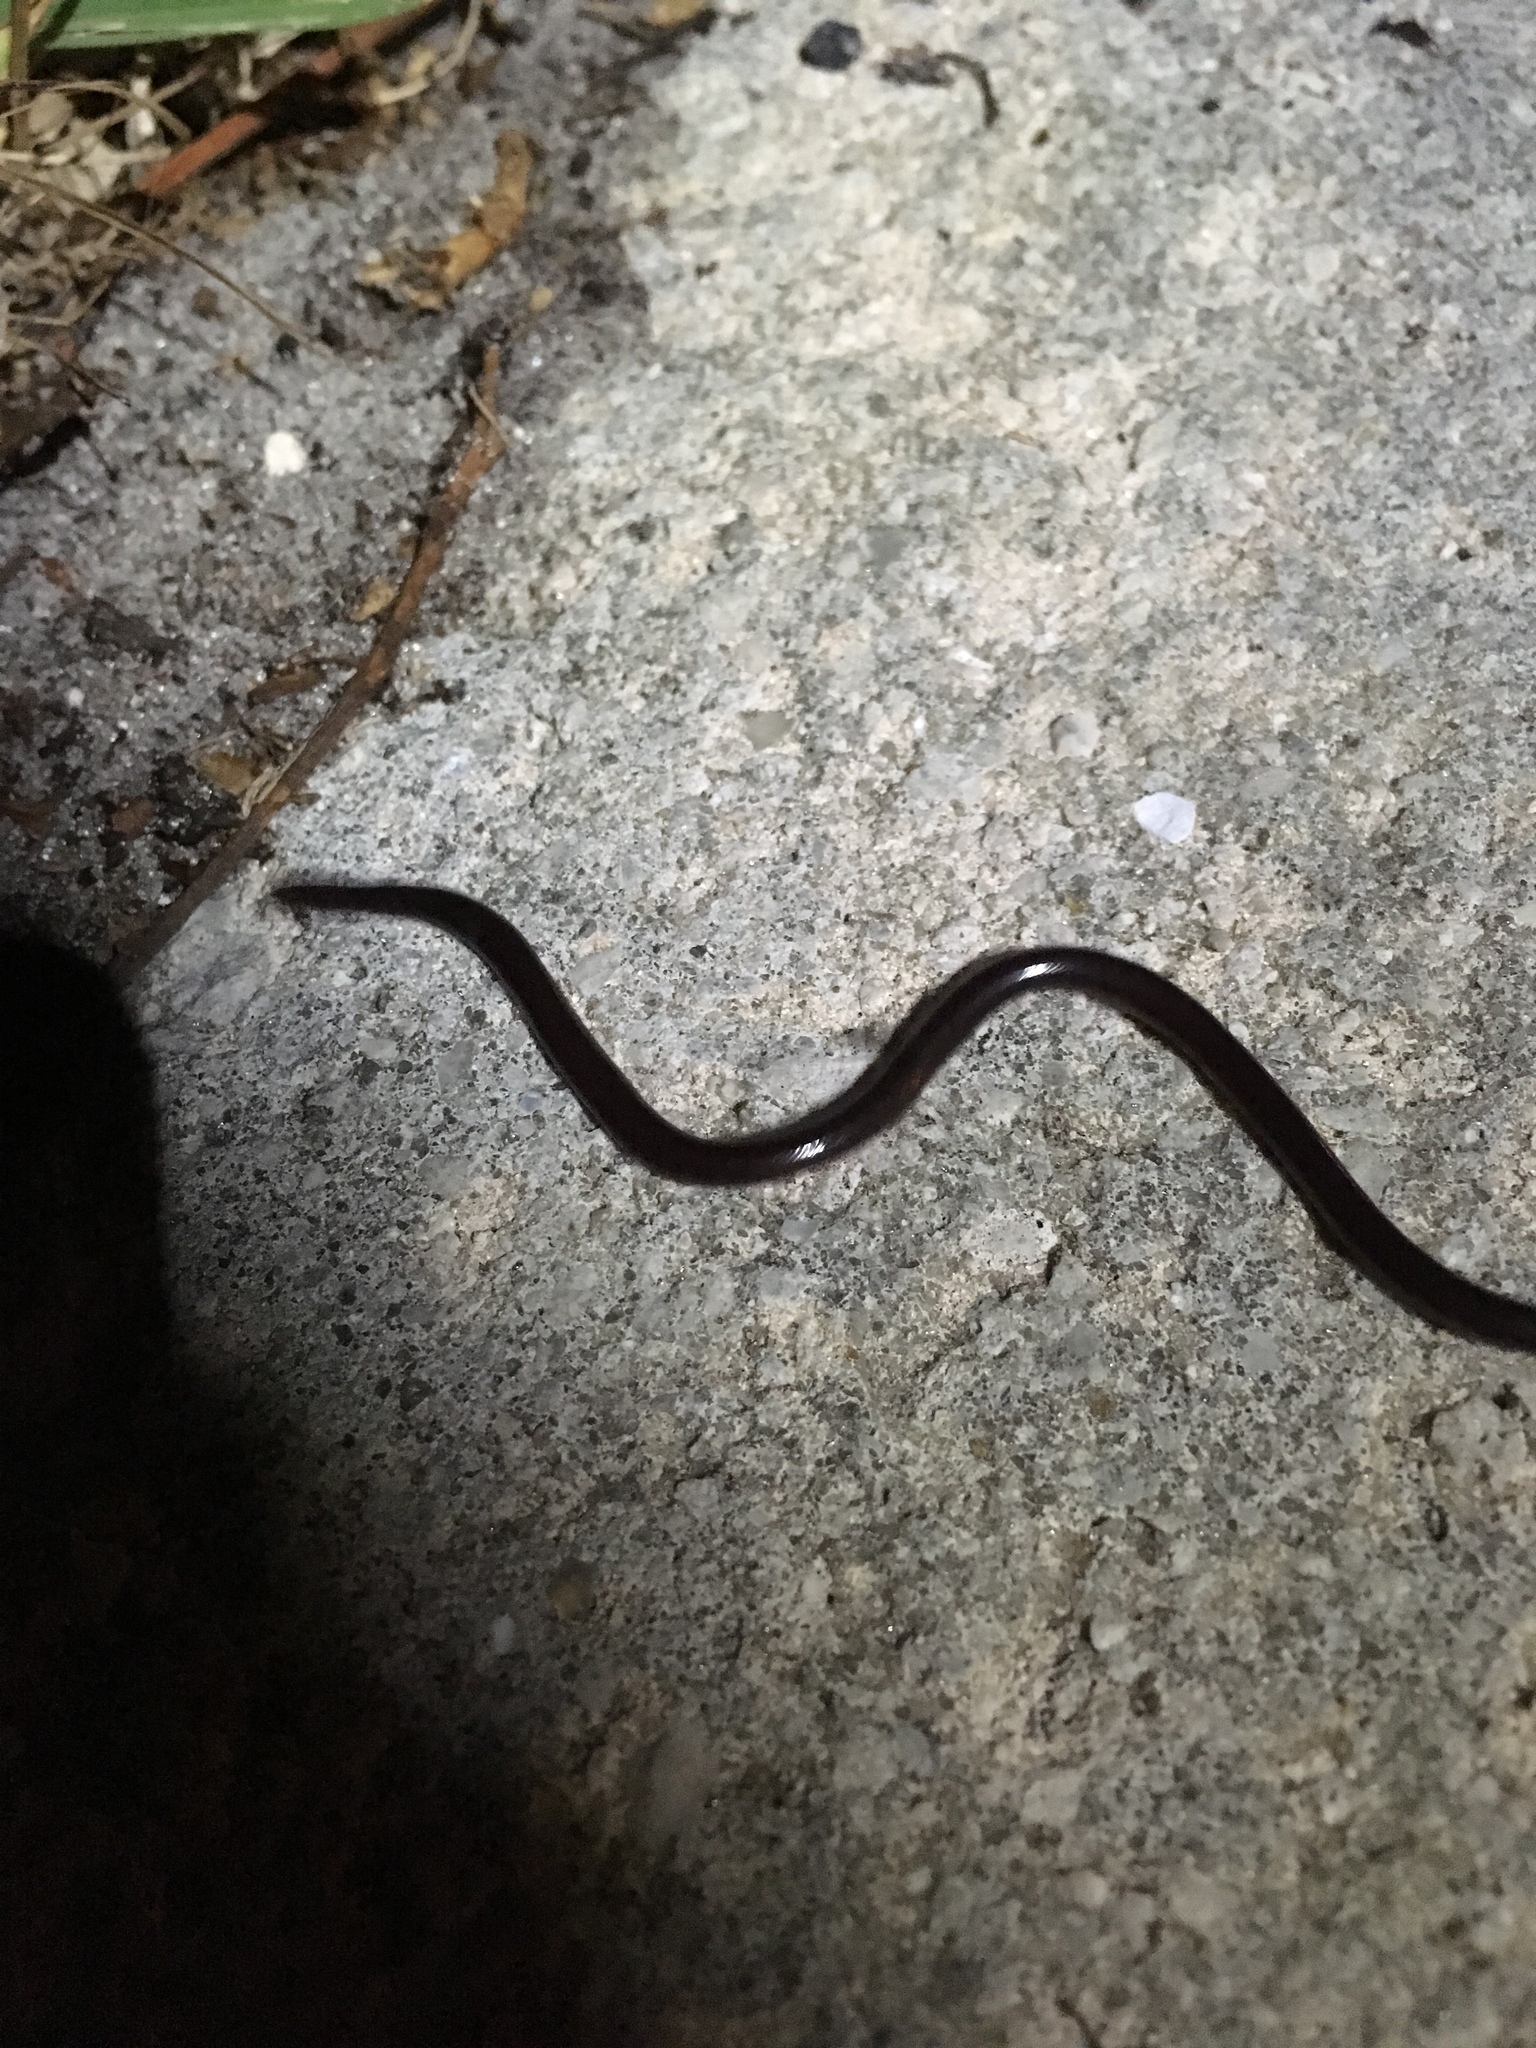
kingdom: Animalia
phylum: Chordata
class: Squamata
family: Typhlopidae
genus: Indotyphlops
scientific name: Indotyphlops braminus
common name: Brahminy blindsnake
